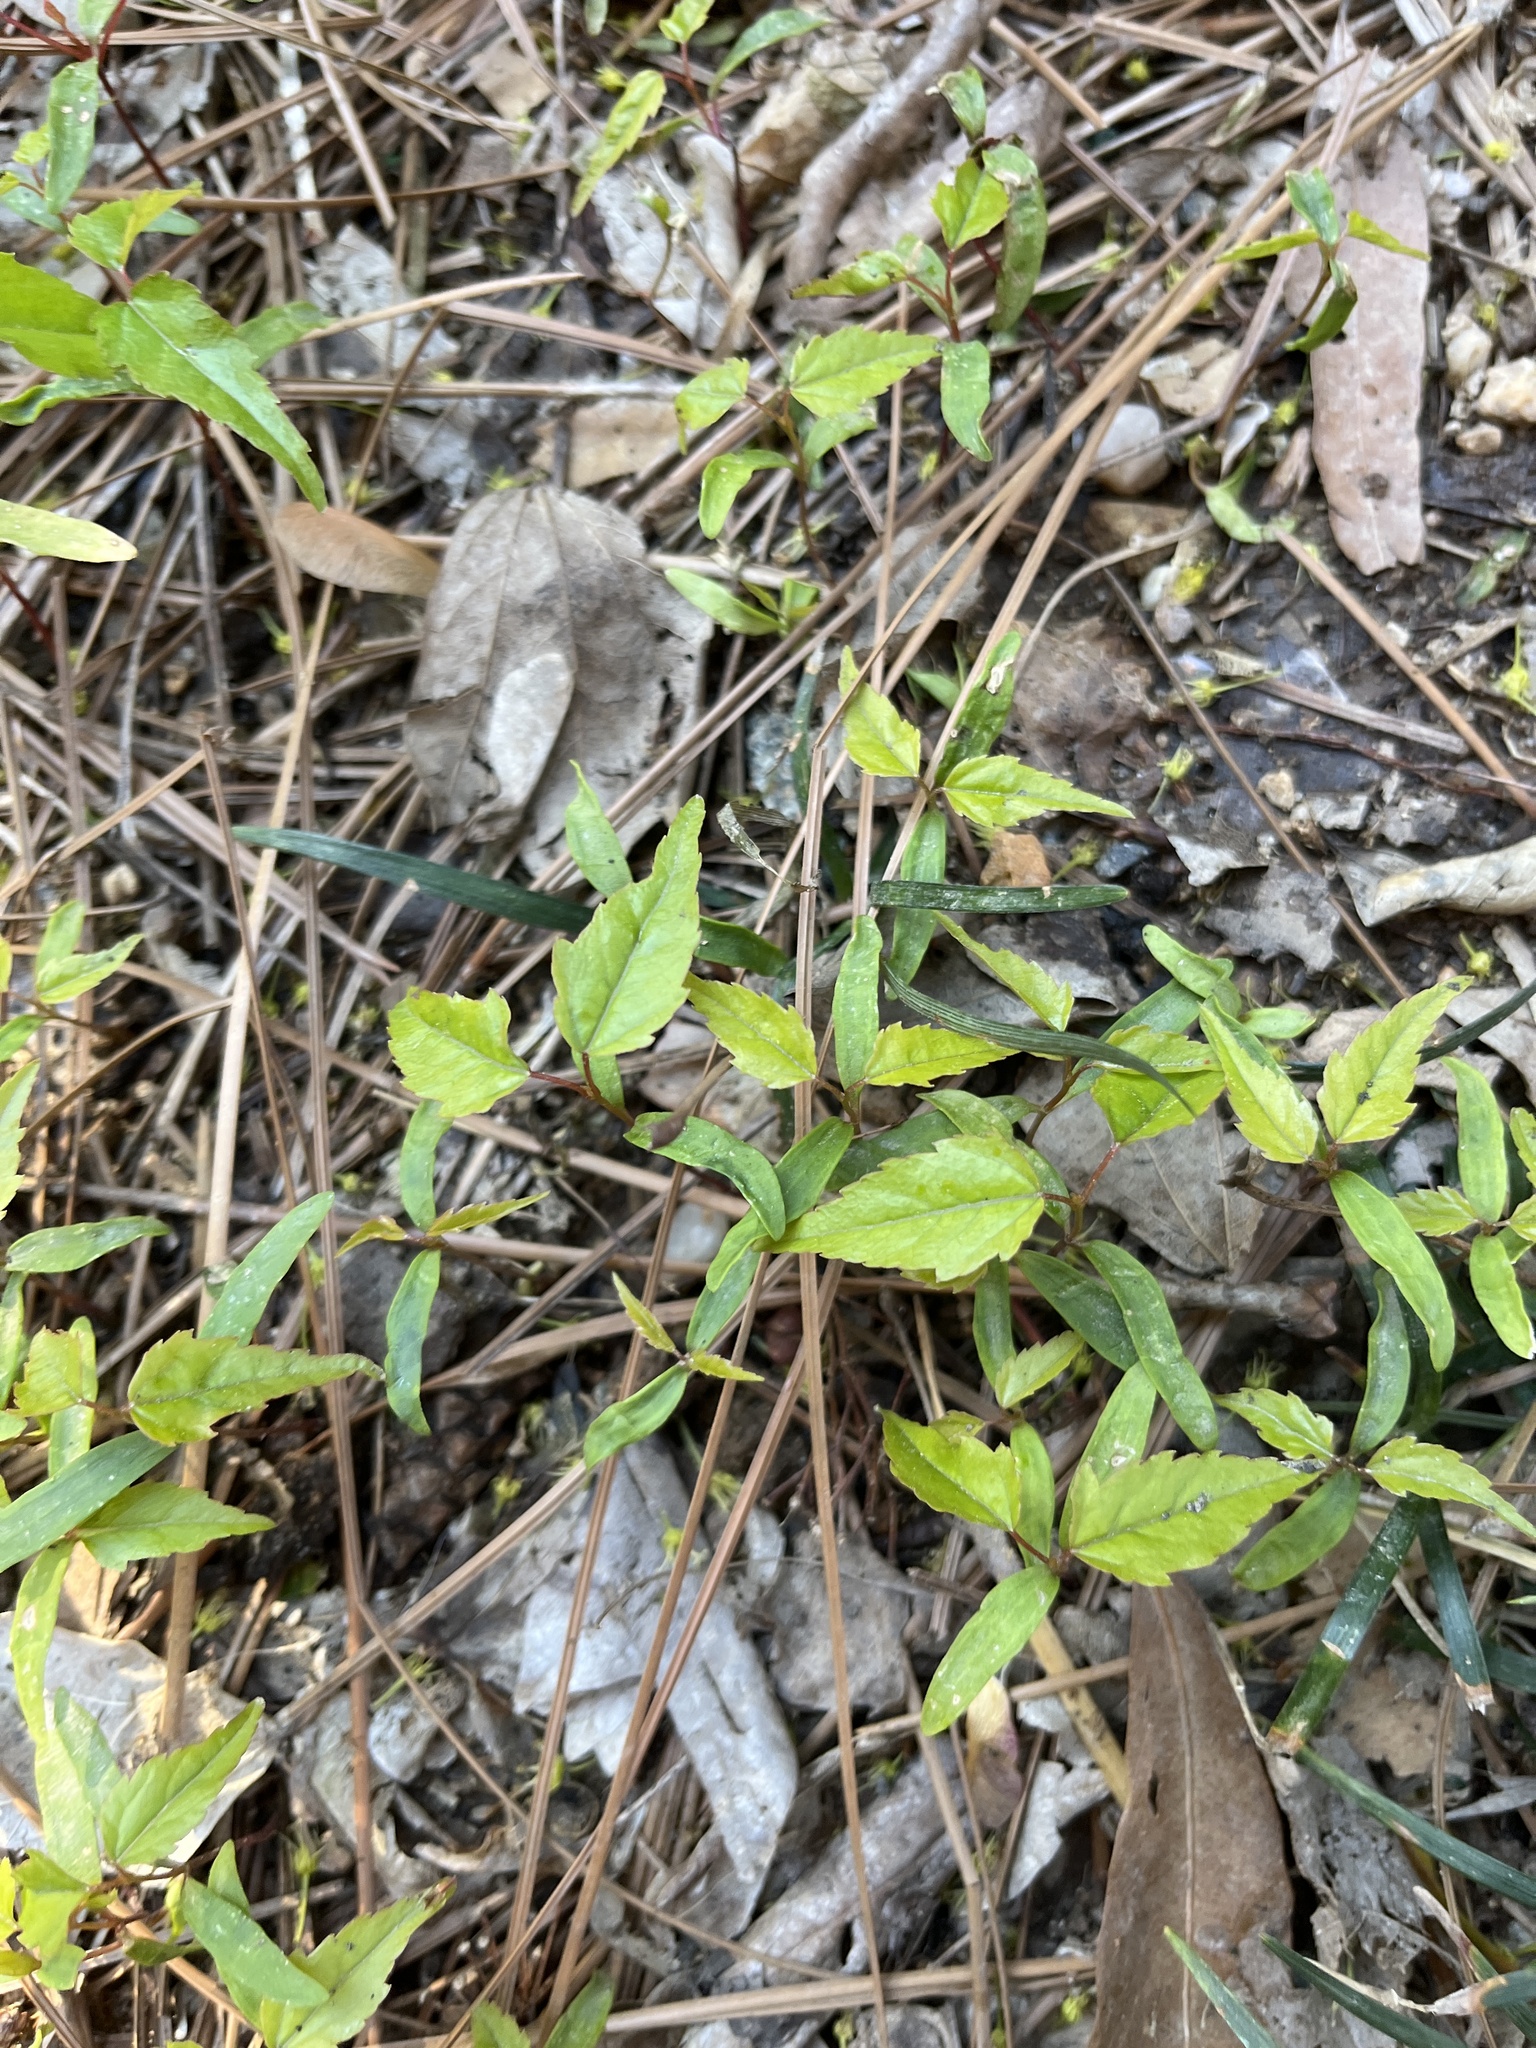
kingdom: Plantae
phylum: Tracheophyta
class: Magnoliopsida
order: Dipsacales
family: Caprifoliaceae
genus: Lonicera
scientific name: Lonicera japonica
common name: Japanese honeysuckle
